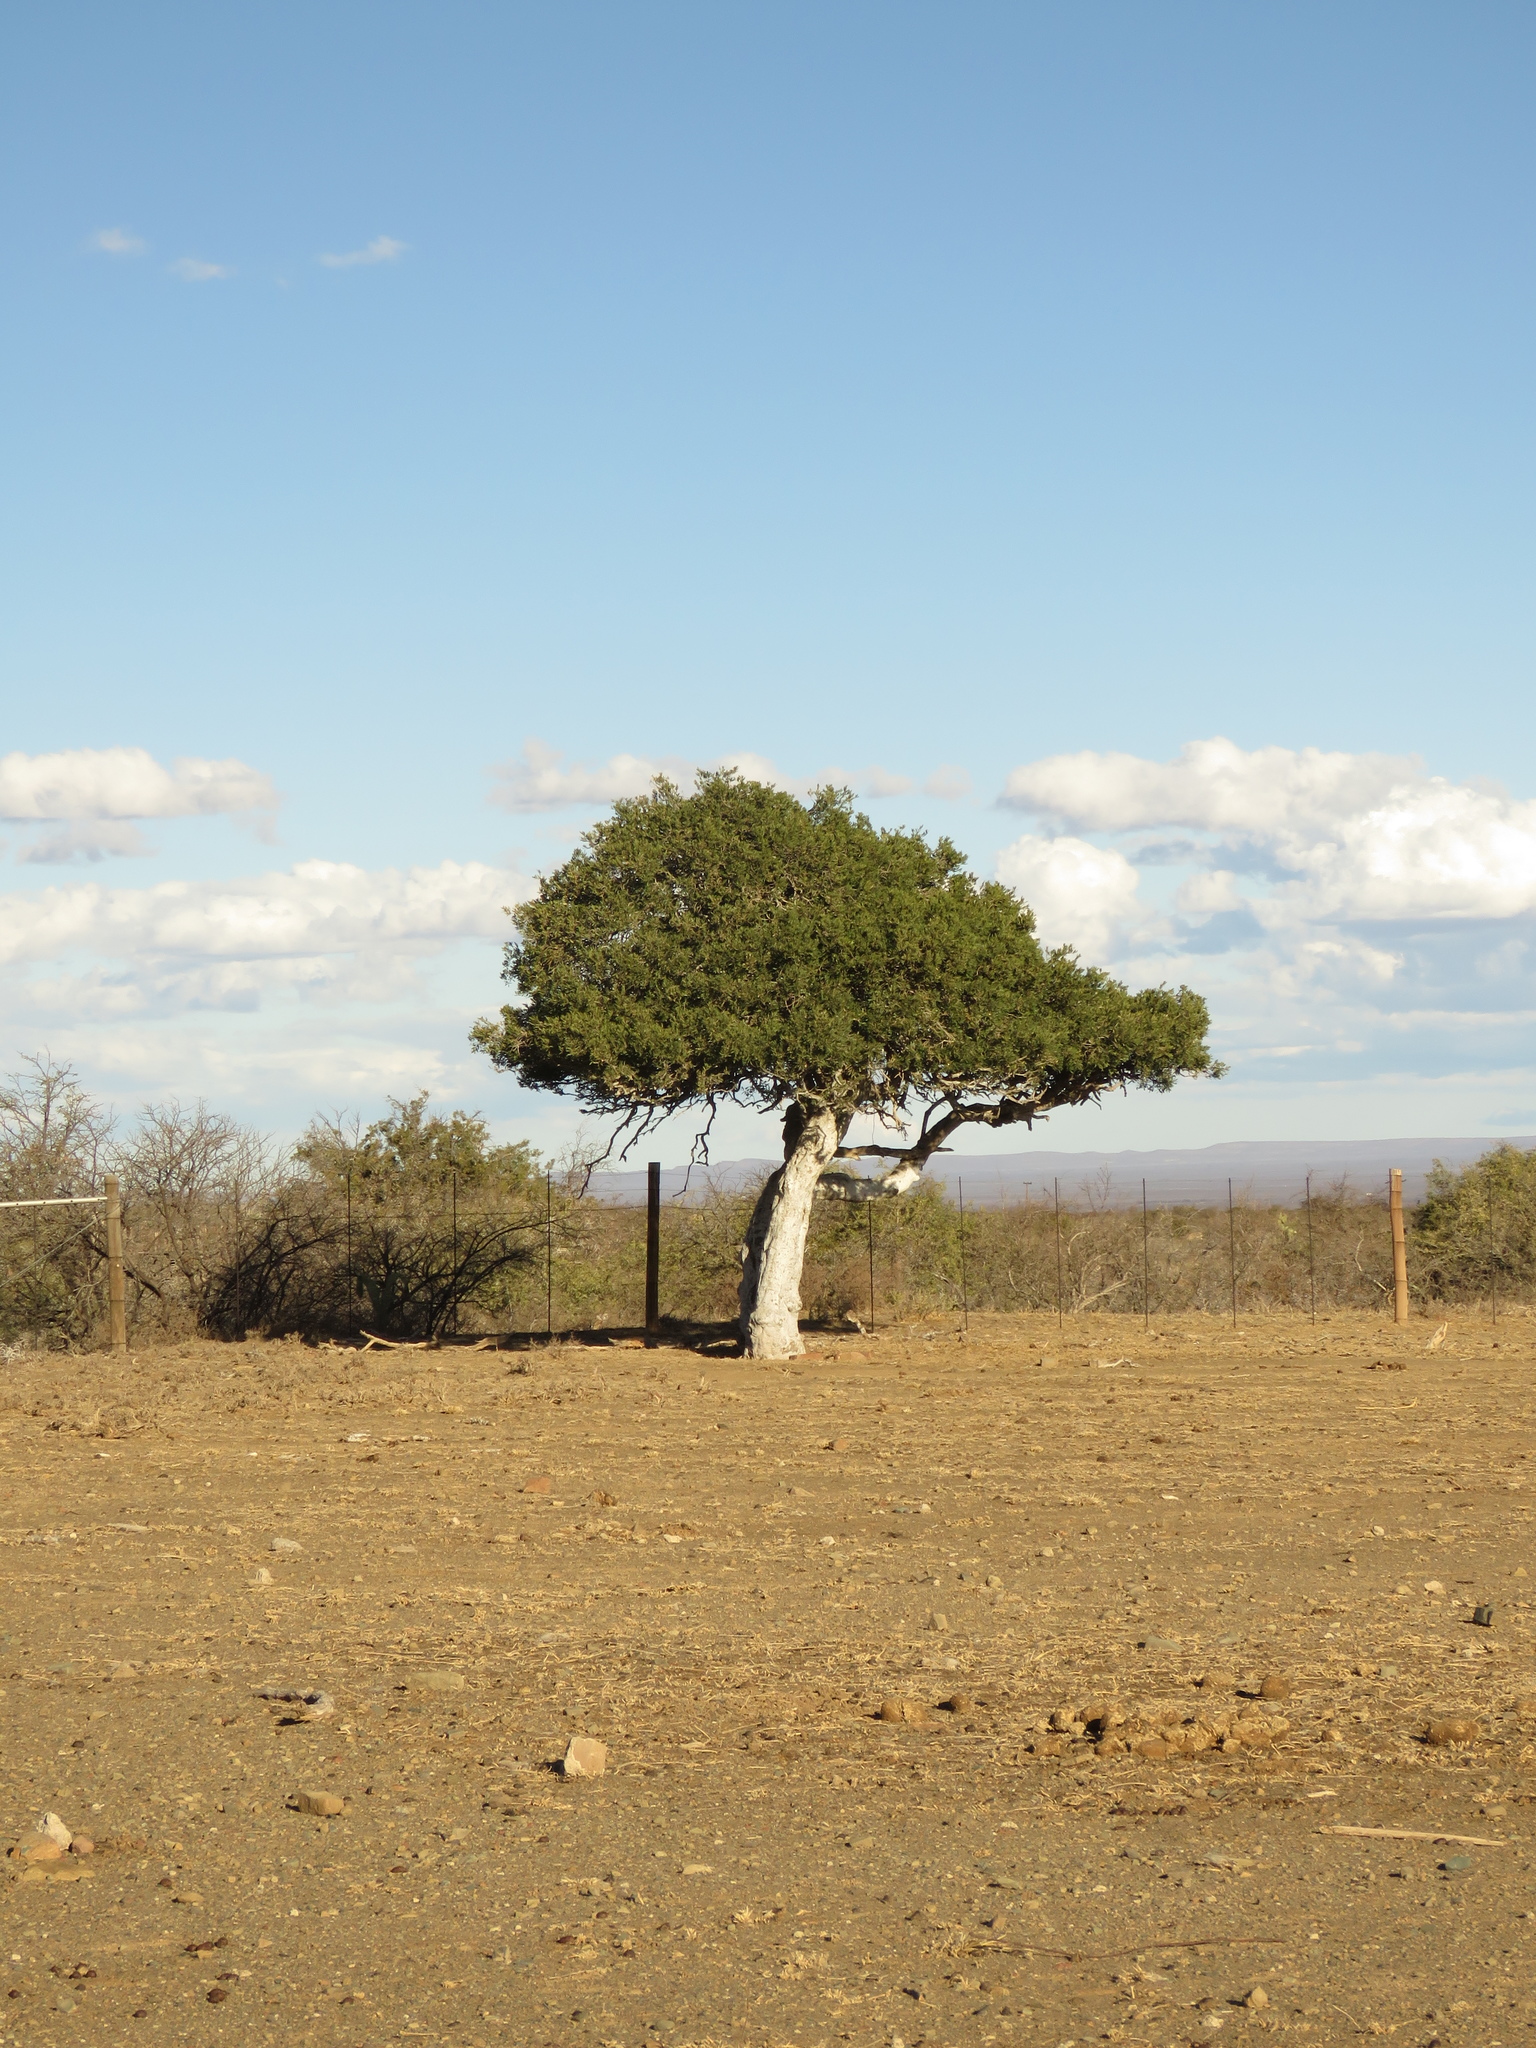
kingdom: Plantae
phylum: Tracheophyta
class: Magnoliopsida
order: Brassicales
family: Capparaceae
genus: Boscia
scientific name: Boscia oleoides
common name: Karoo shepherd tree
